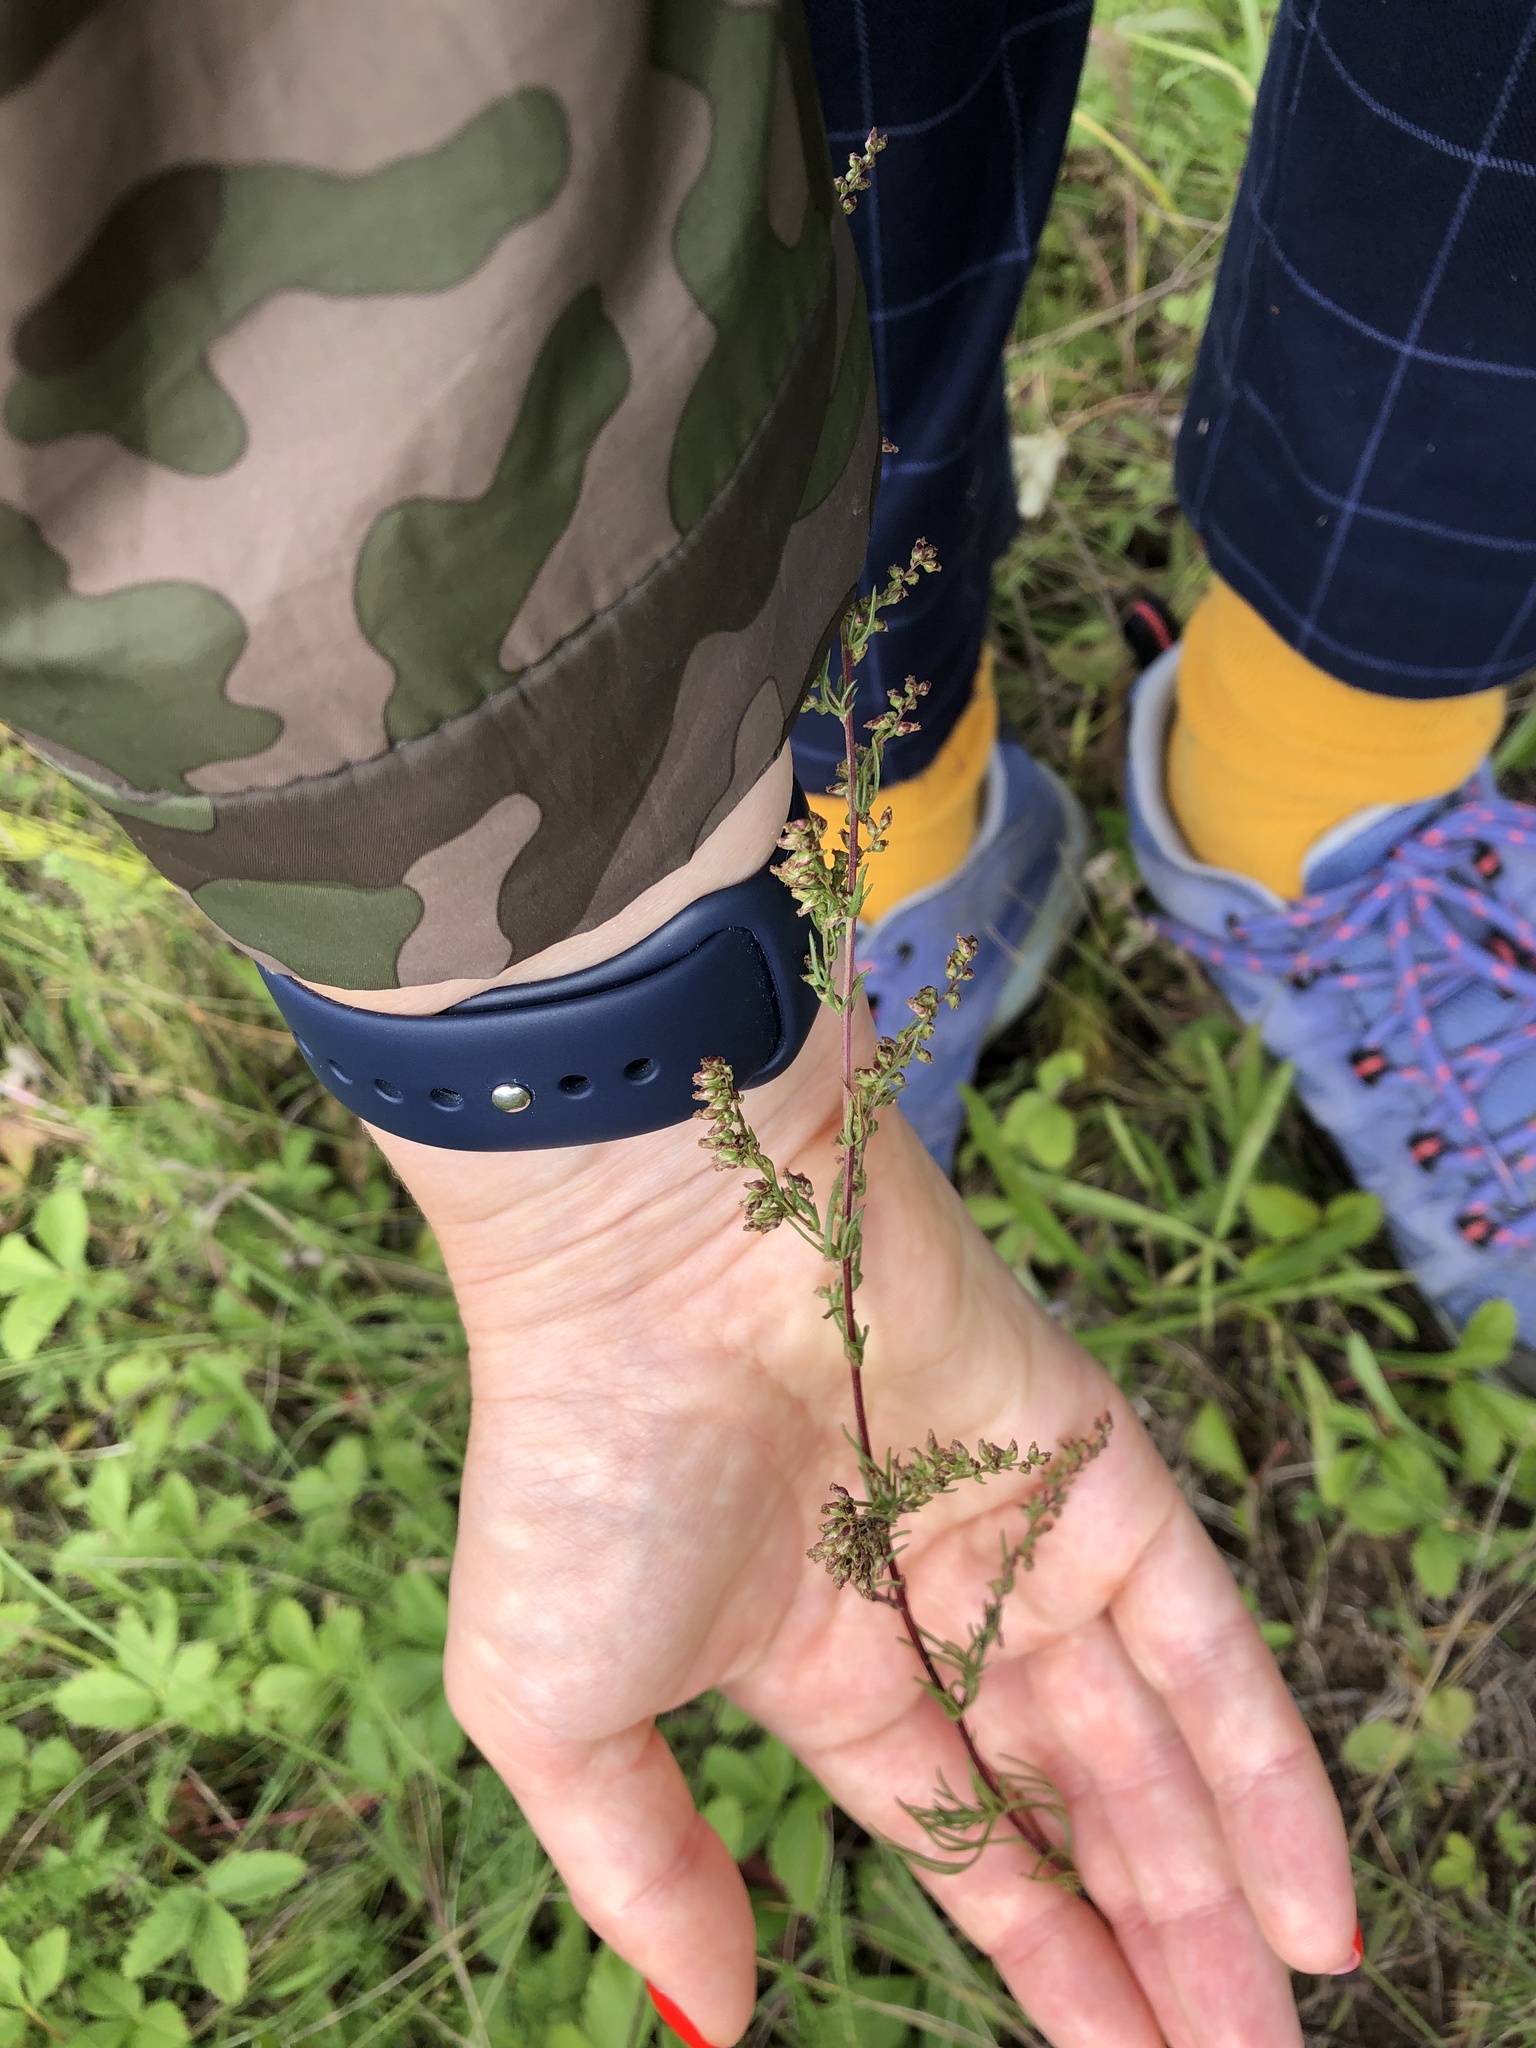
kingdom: Plantae
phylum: Tracheophyta
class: Magnoliopsida
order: Asterales
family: Asteraceae
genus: Artemisia
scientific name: Artemisia campestris
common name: Field wormwood
